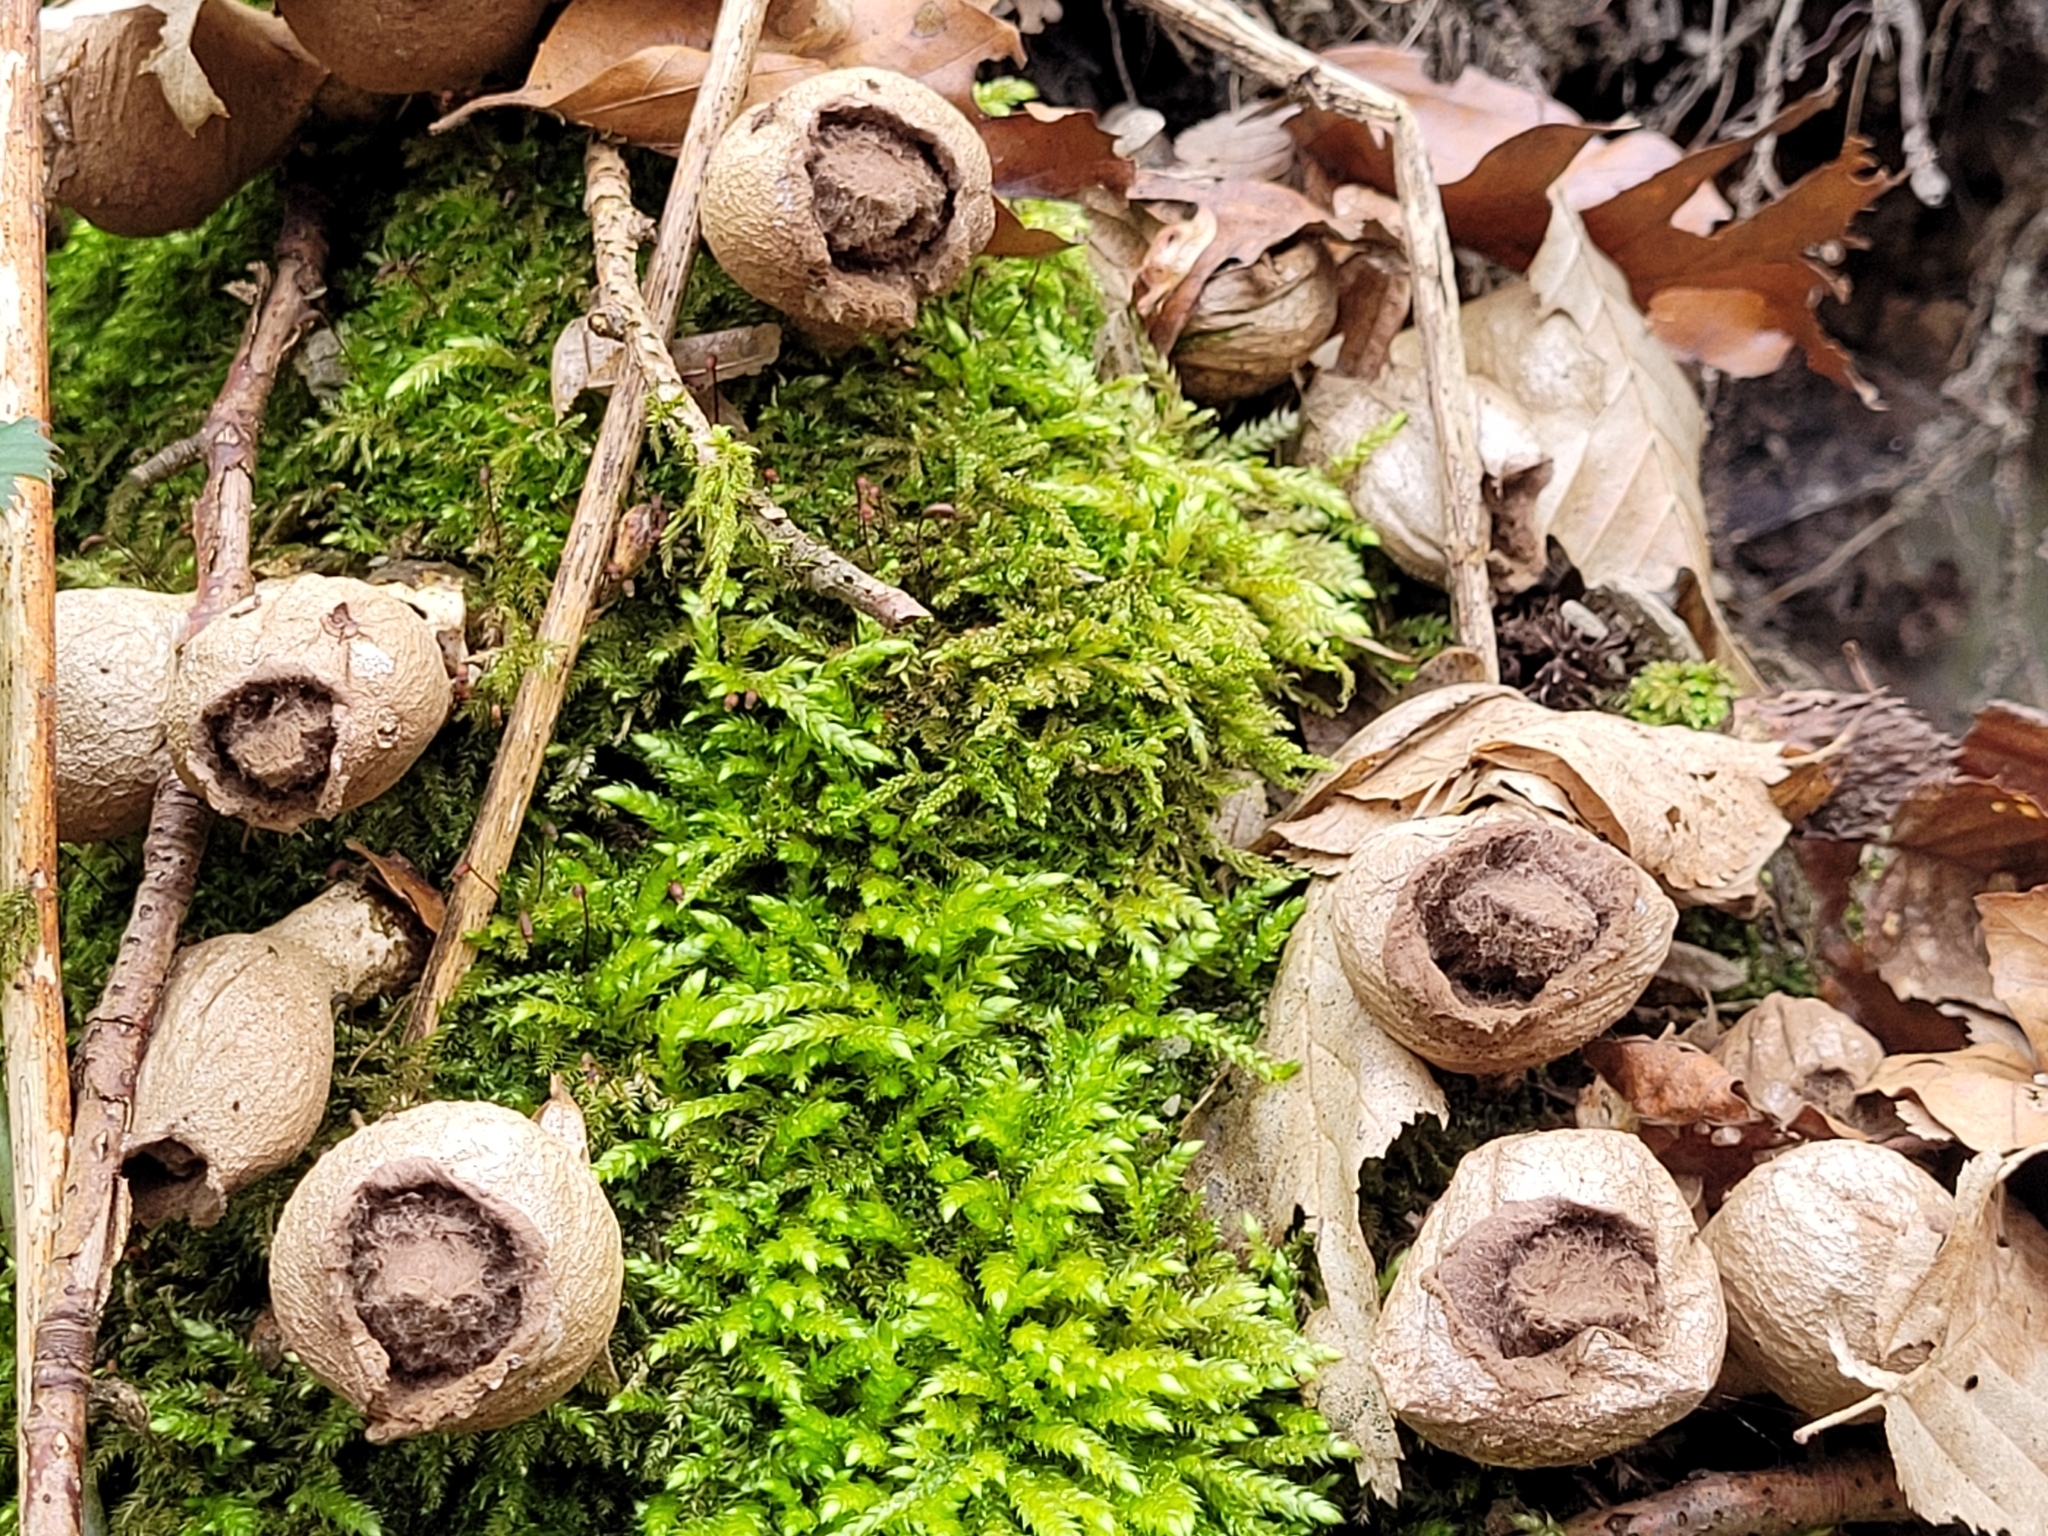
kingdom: Fungi
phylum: Basidiomycota
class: Agaricomycetes
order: Agaricales
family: Lycoperdaceae
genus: Apioperdon
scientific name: Apioperdon pyriforme
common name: Pear-shaped puffball
